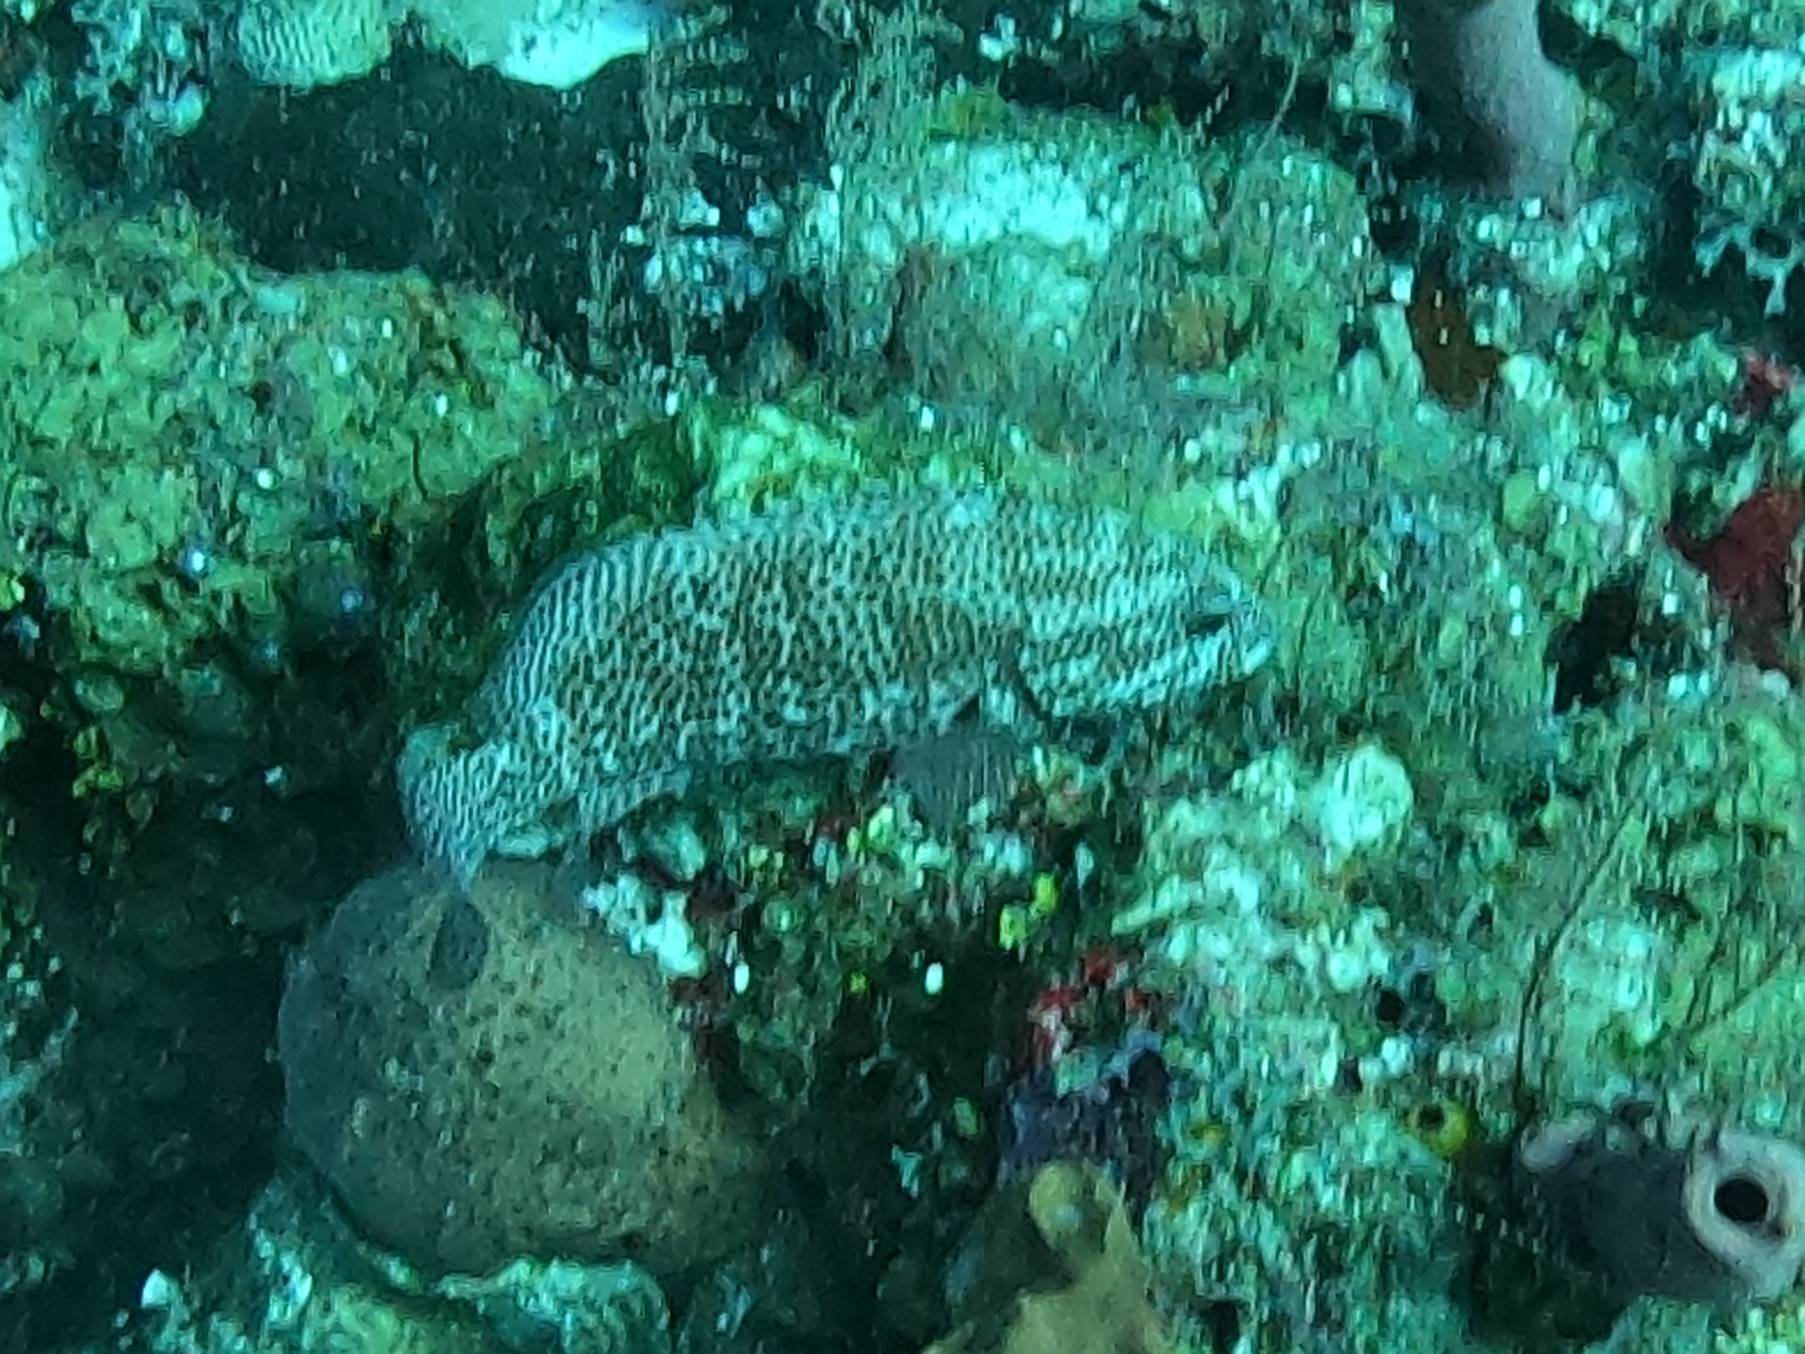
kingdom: Animalia
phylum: Chordata
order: Perciformes
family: Serranidae
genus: Cephalopholis
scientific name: Cephalopholis cruentata
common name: Graysby
